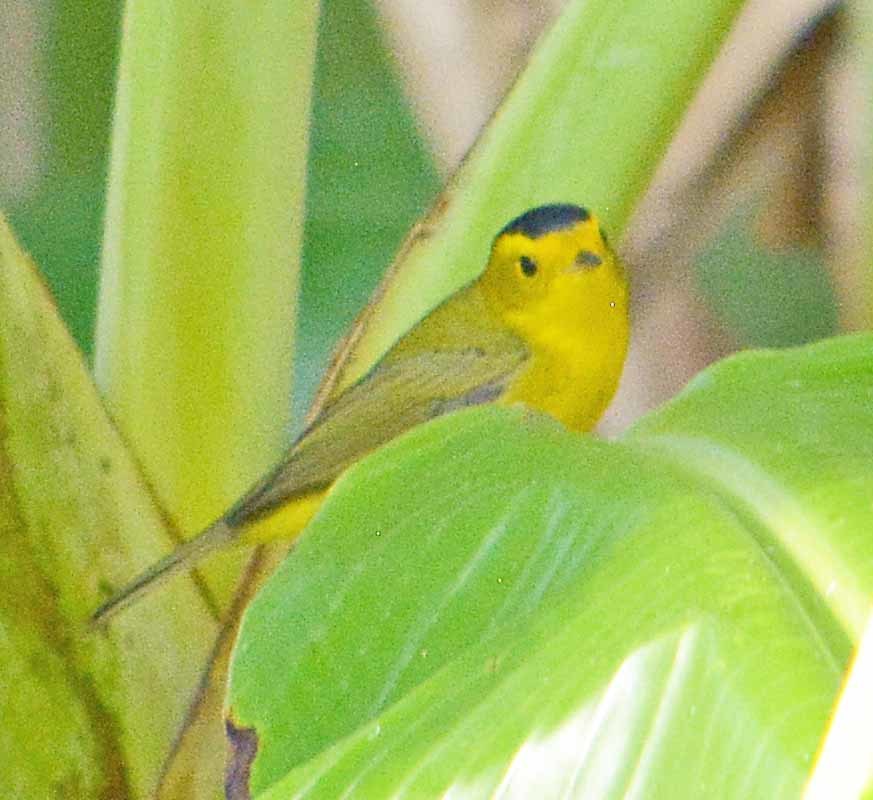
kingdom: Animalia
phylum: Chordata
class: Aves
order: Passeriformes
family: Parulidae
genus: Cardellina
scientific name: Cardellina pusilla
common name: Wilson's warbler
